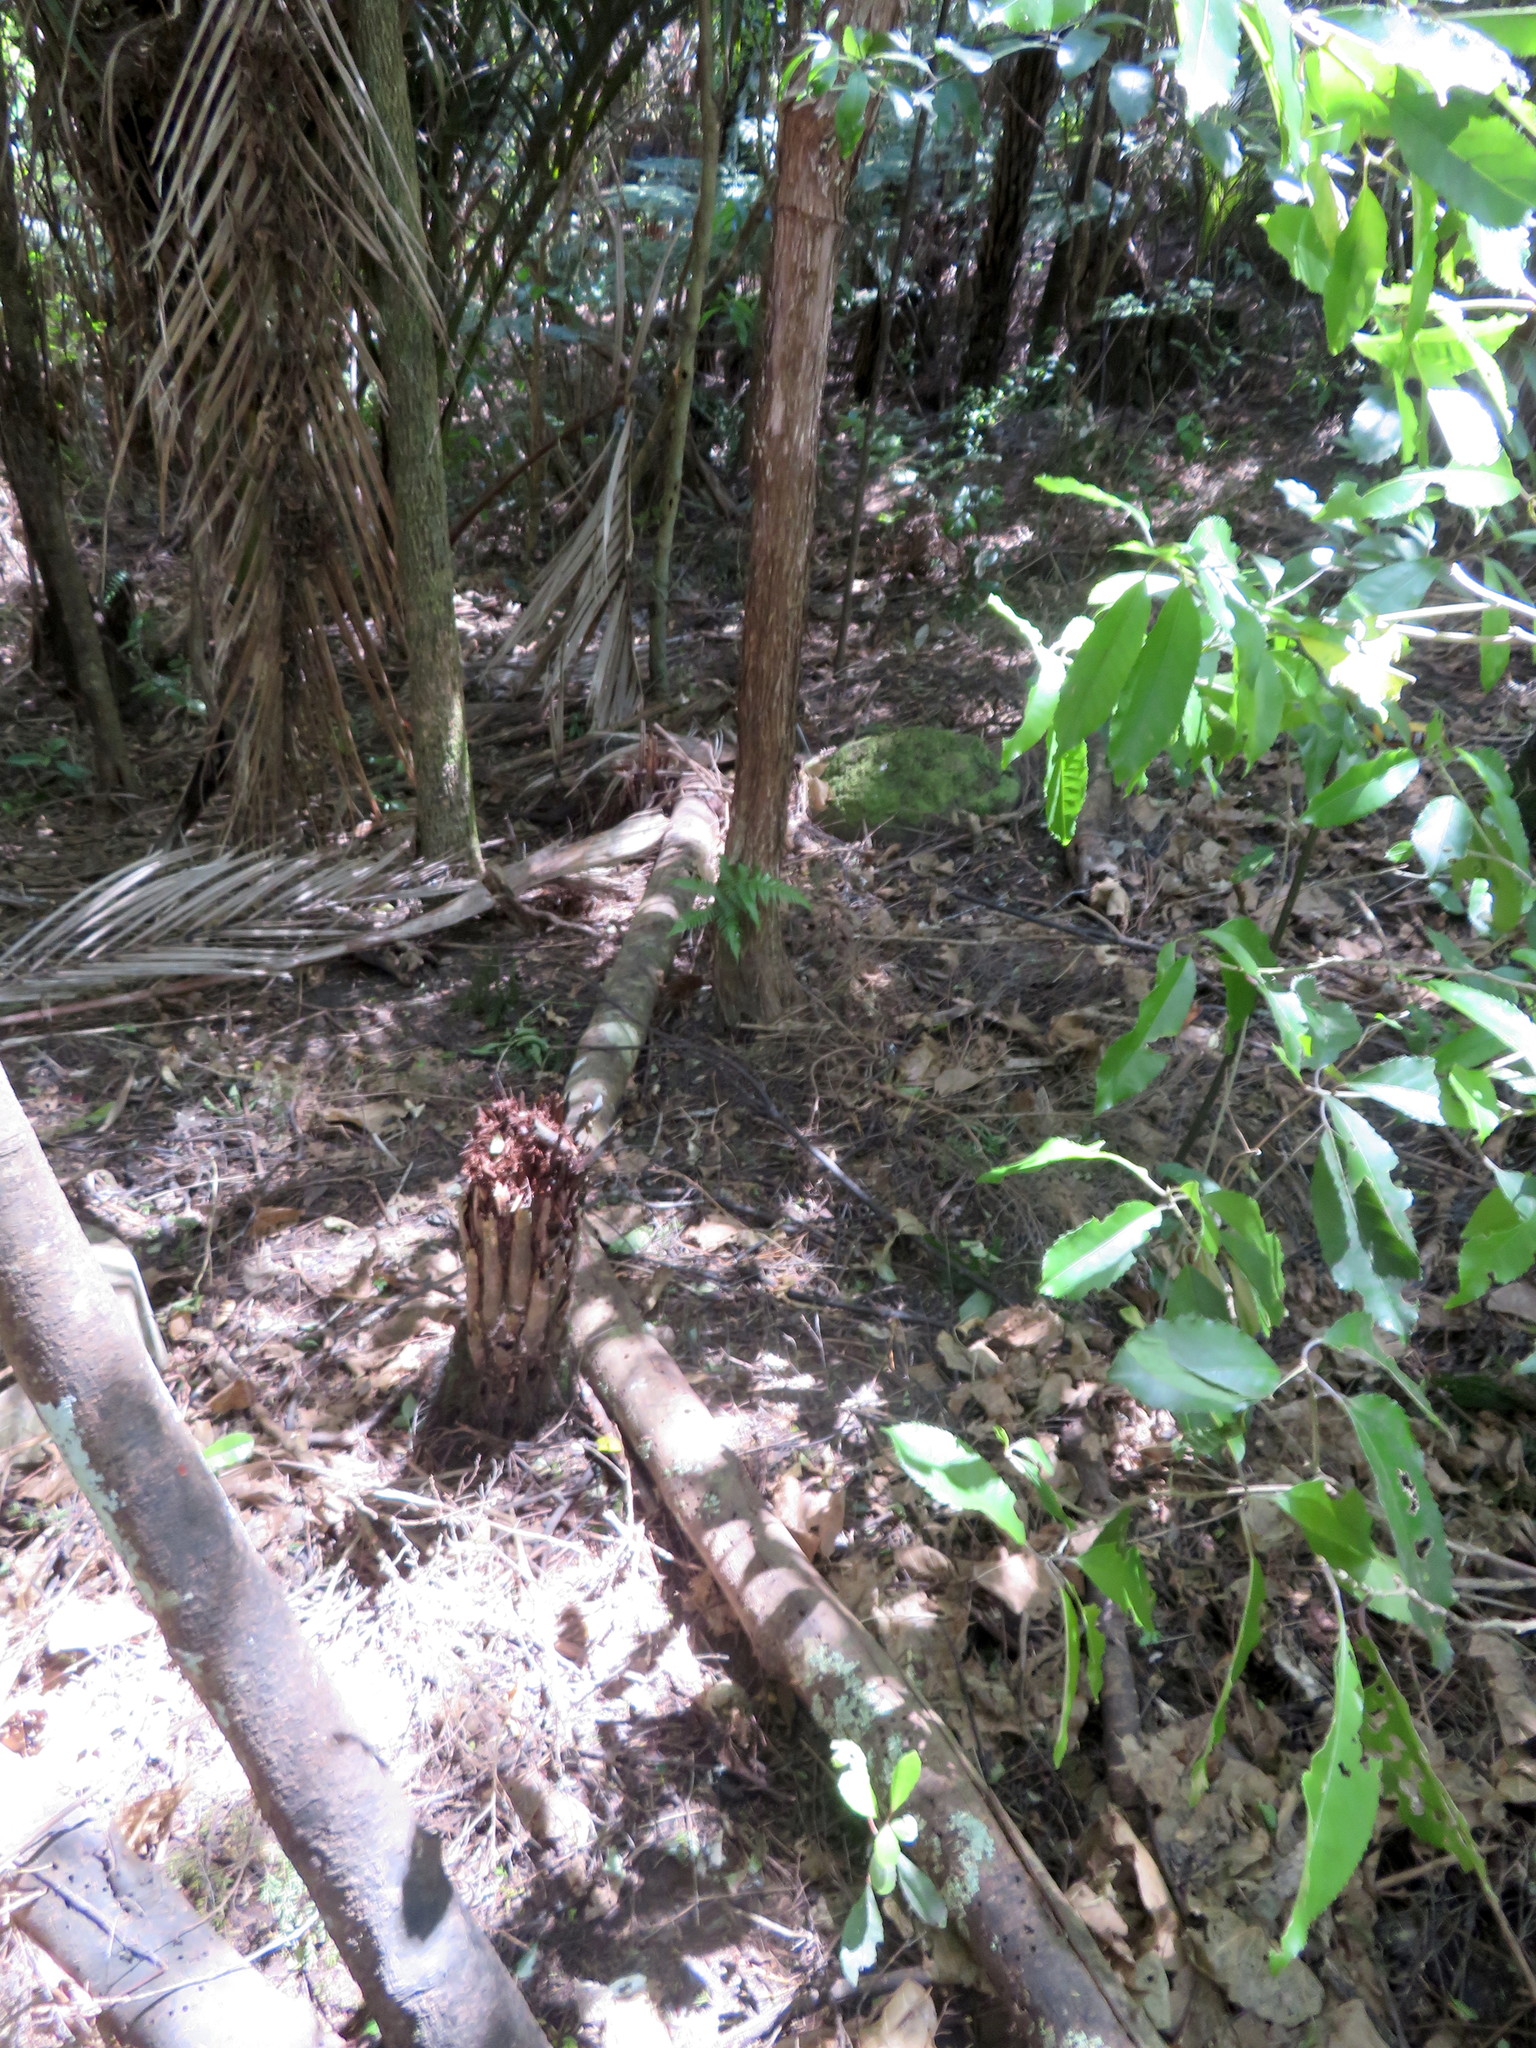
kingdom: Plantae
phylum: Tracheophyta
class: Magnoliopsida
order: Malpighiales
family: Violaceae
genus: Melicytus
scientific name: Melicytus ramiflorus
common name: Mahoe
